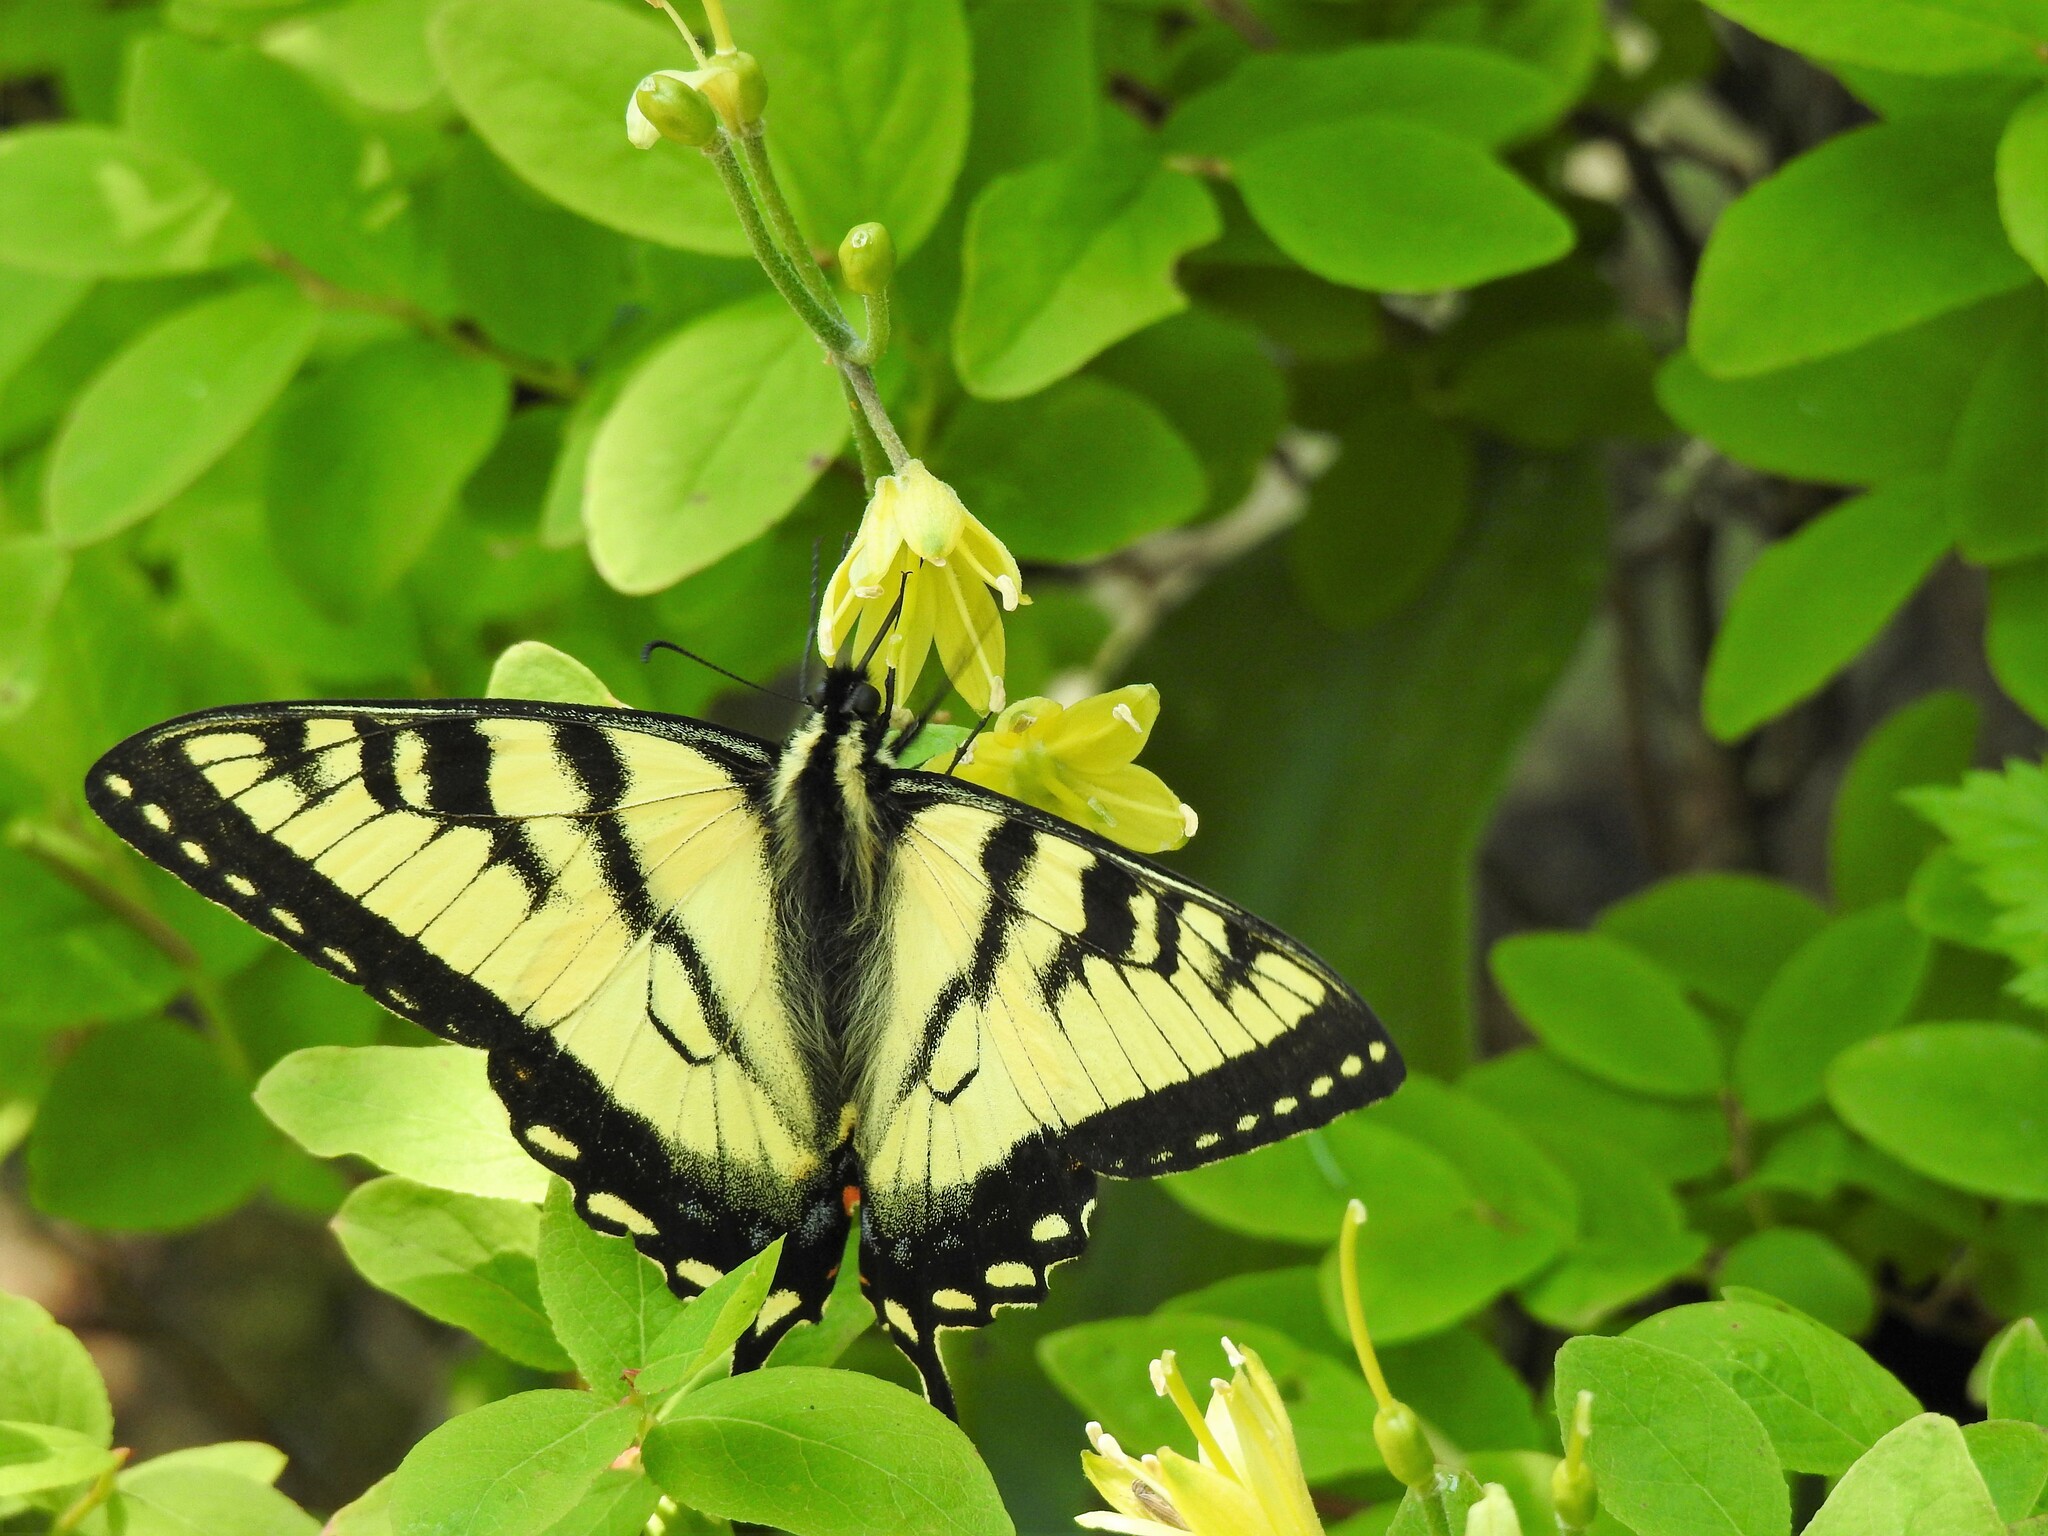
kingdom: Animalia
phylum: Arthropoda
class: Insecta
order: Lepidoptera
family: Papilionidae
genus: Papilio
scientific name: Papilio canadensis
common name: Canadian tiger swallowtail
